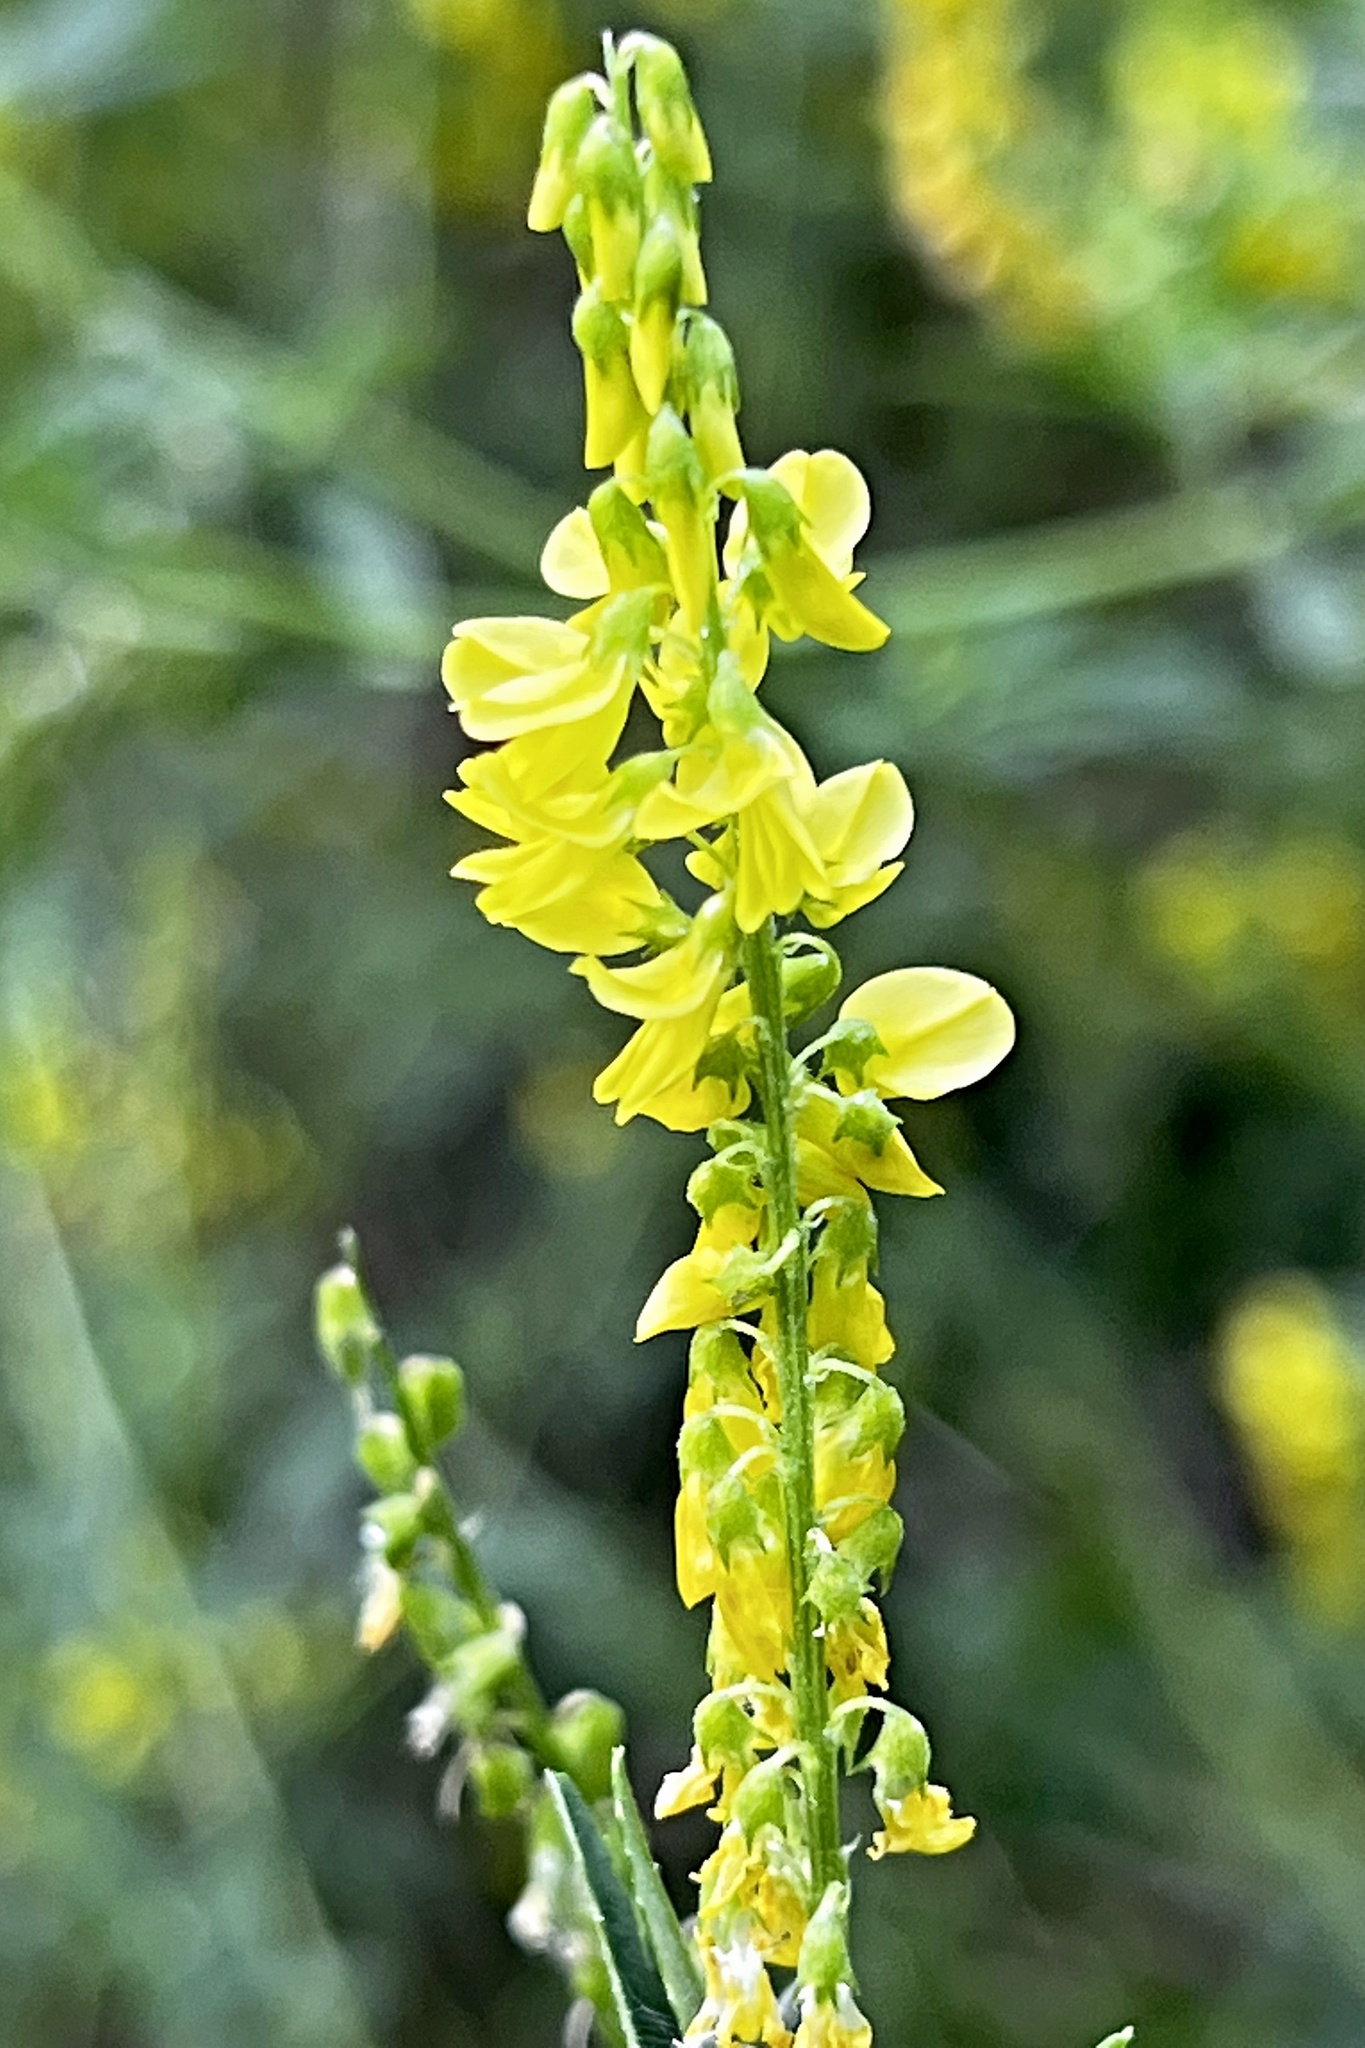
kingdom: Plantae
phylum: Tracheophyta
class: Magnoliopsida
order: Fabales
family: Fabaceae
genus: Melilotus
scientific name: Melilotus officinalis
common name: Sweetclover
